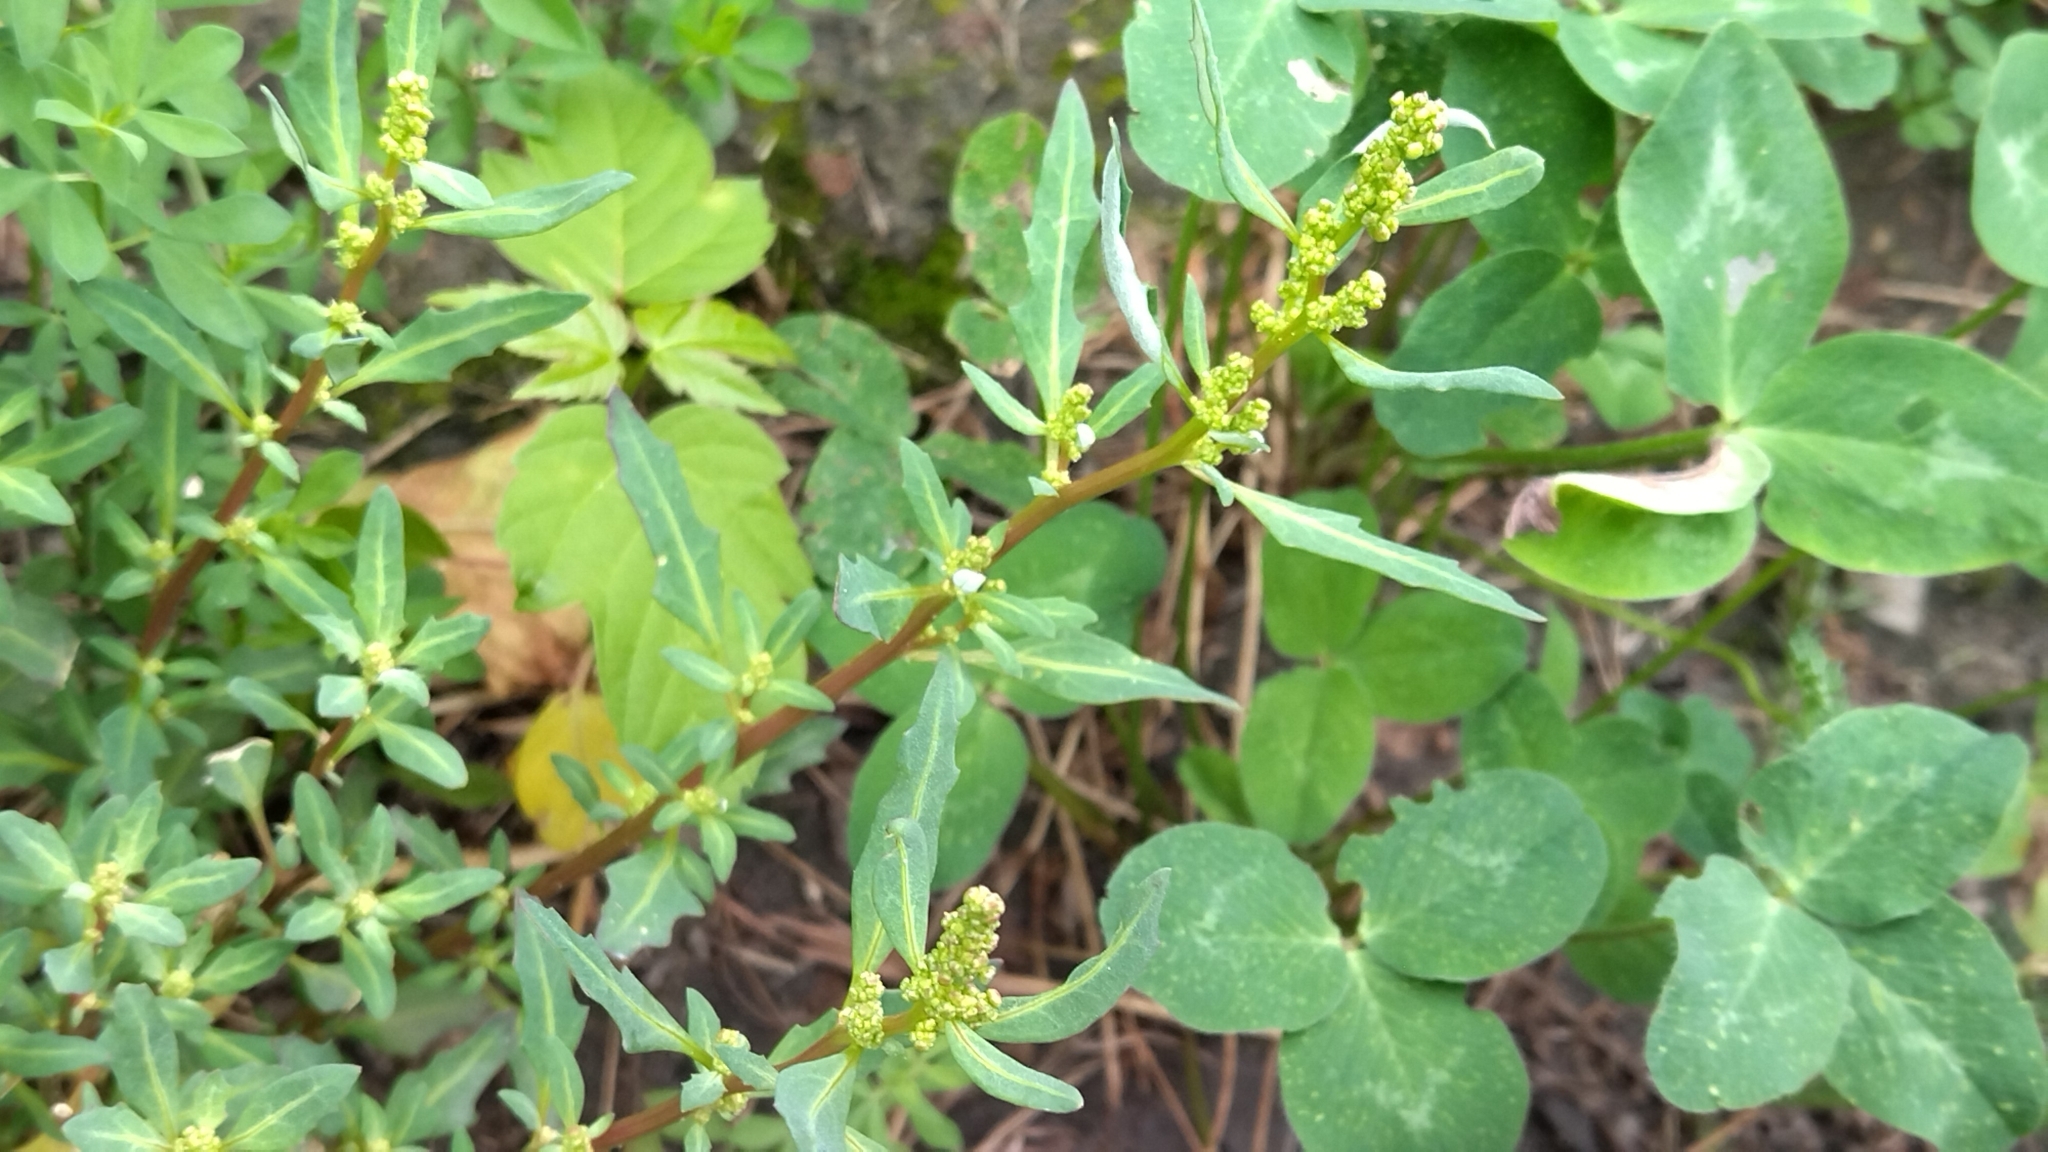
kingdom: Plantae
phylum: Tracheophyta
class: Magnoliopsida
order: Caryophyllales
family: Amaranthaceae
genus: Oxybasis
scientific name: Oxybasis glauca
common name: Glaucous goosefoot
